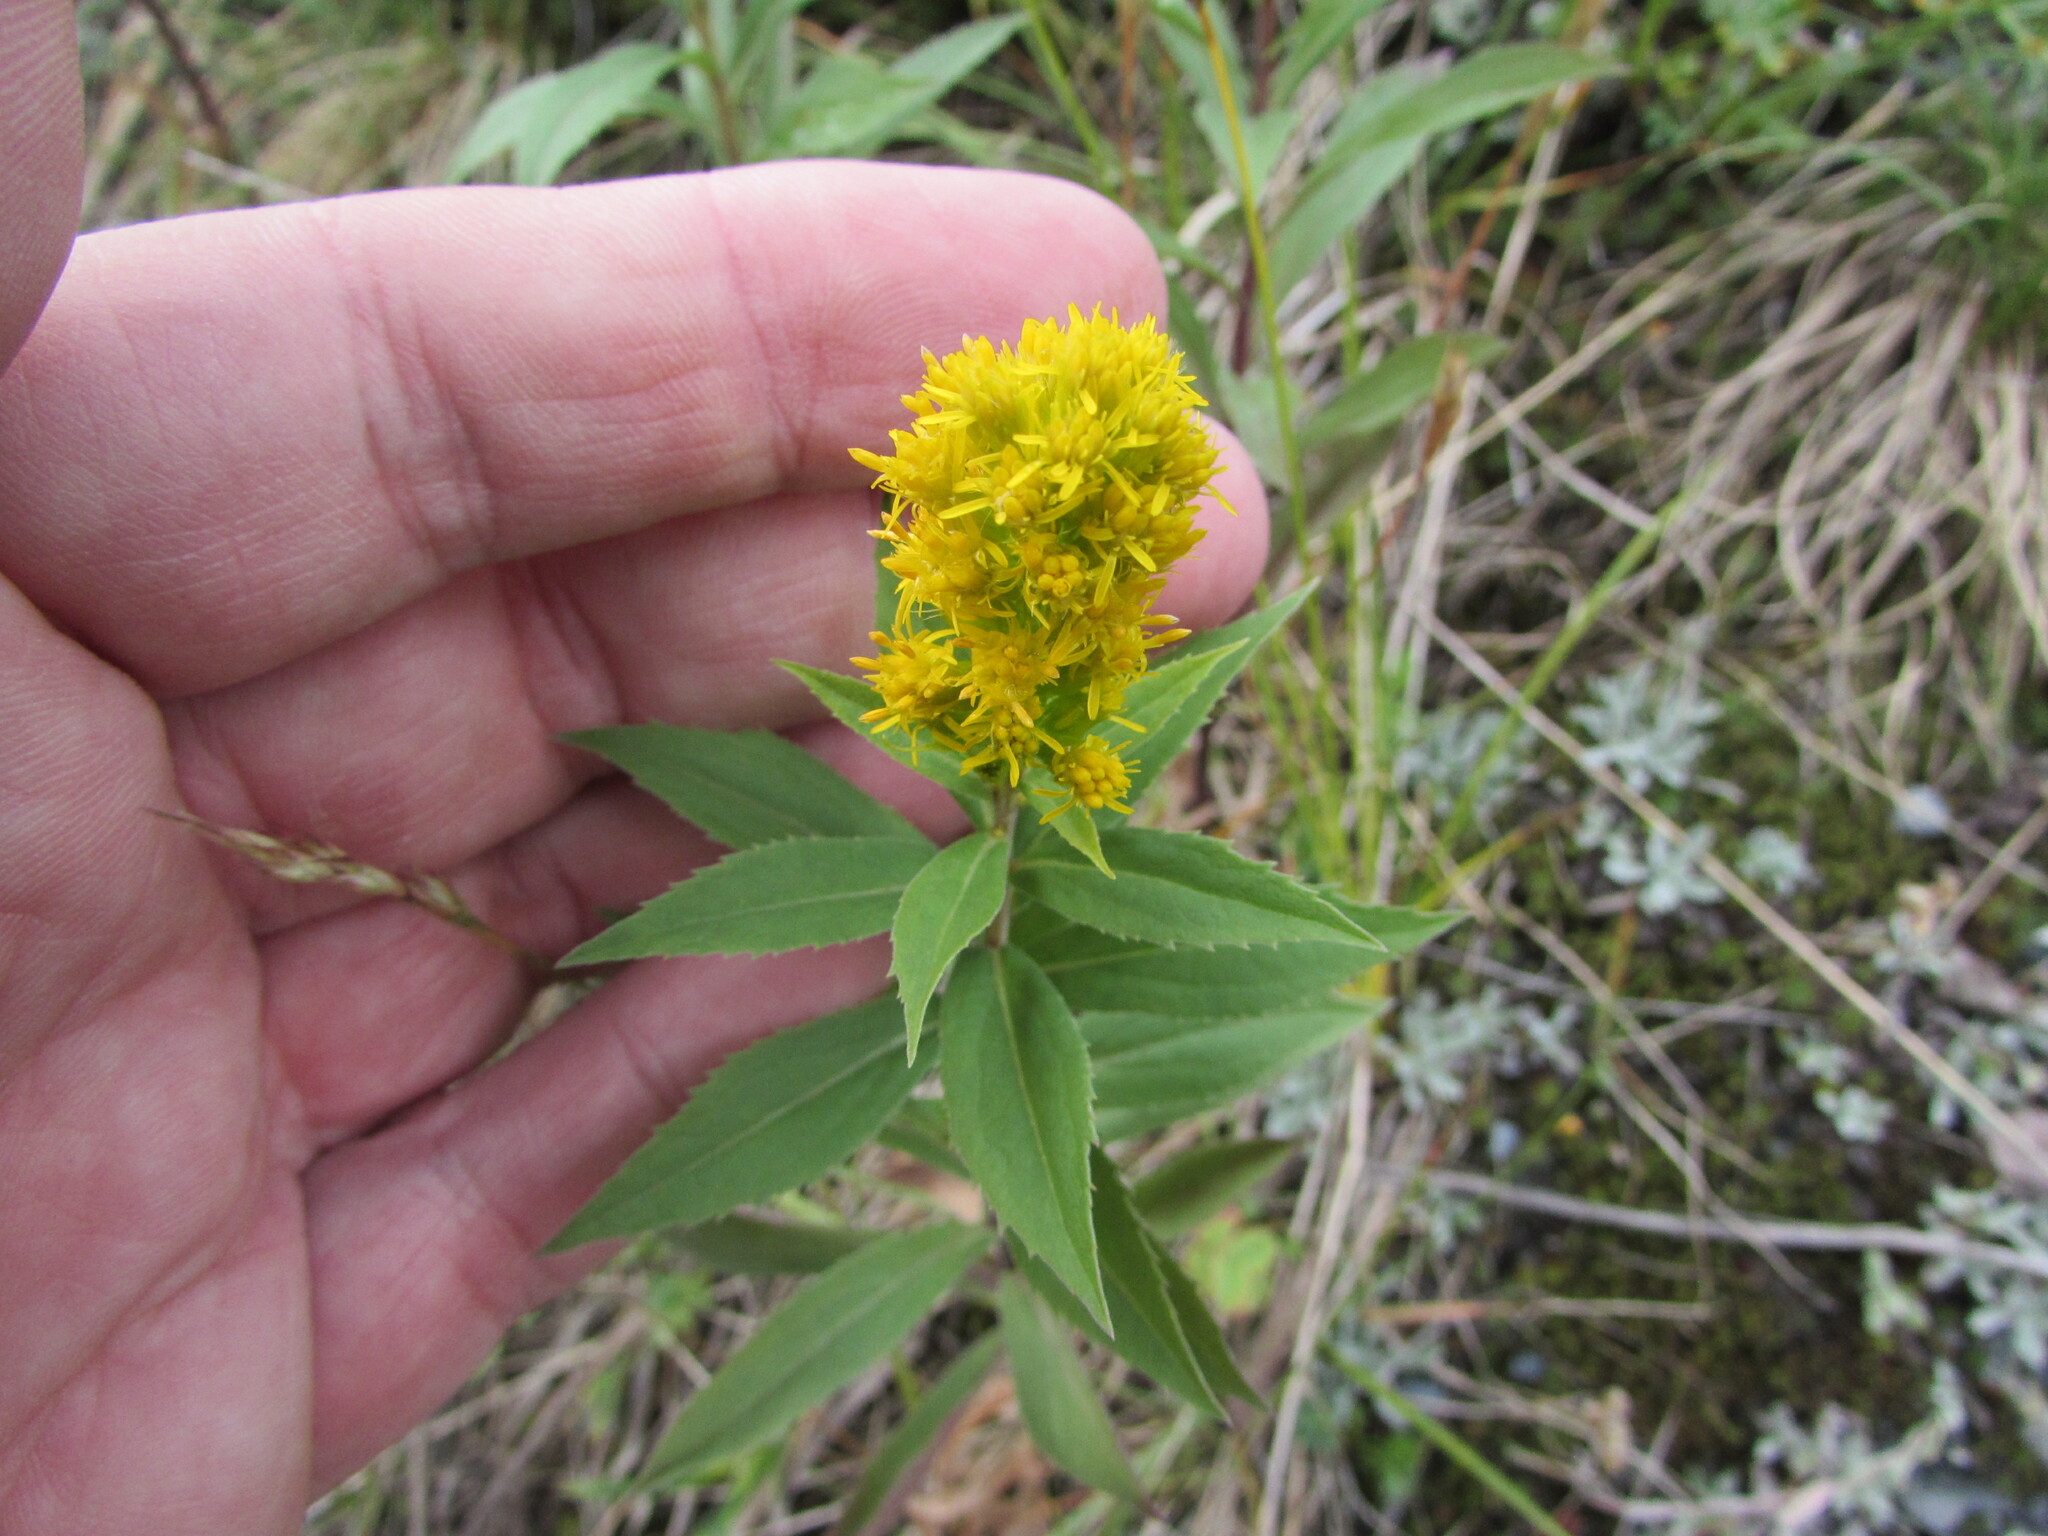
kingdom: Plantae
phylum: Tracheophyta
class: Magnoliopsida
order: Asterales
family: Asteraceae
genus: Solidago
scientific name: Solidago lepida
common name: Western canada goldenrod
